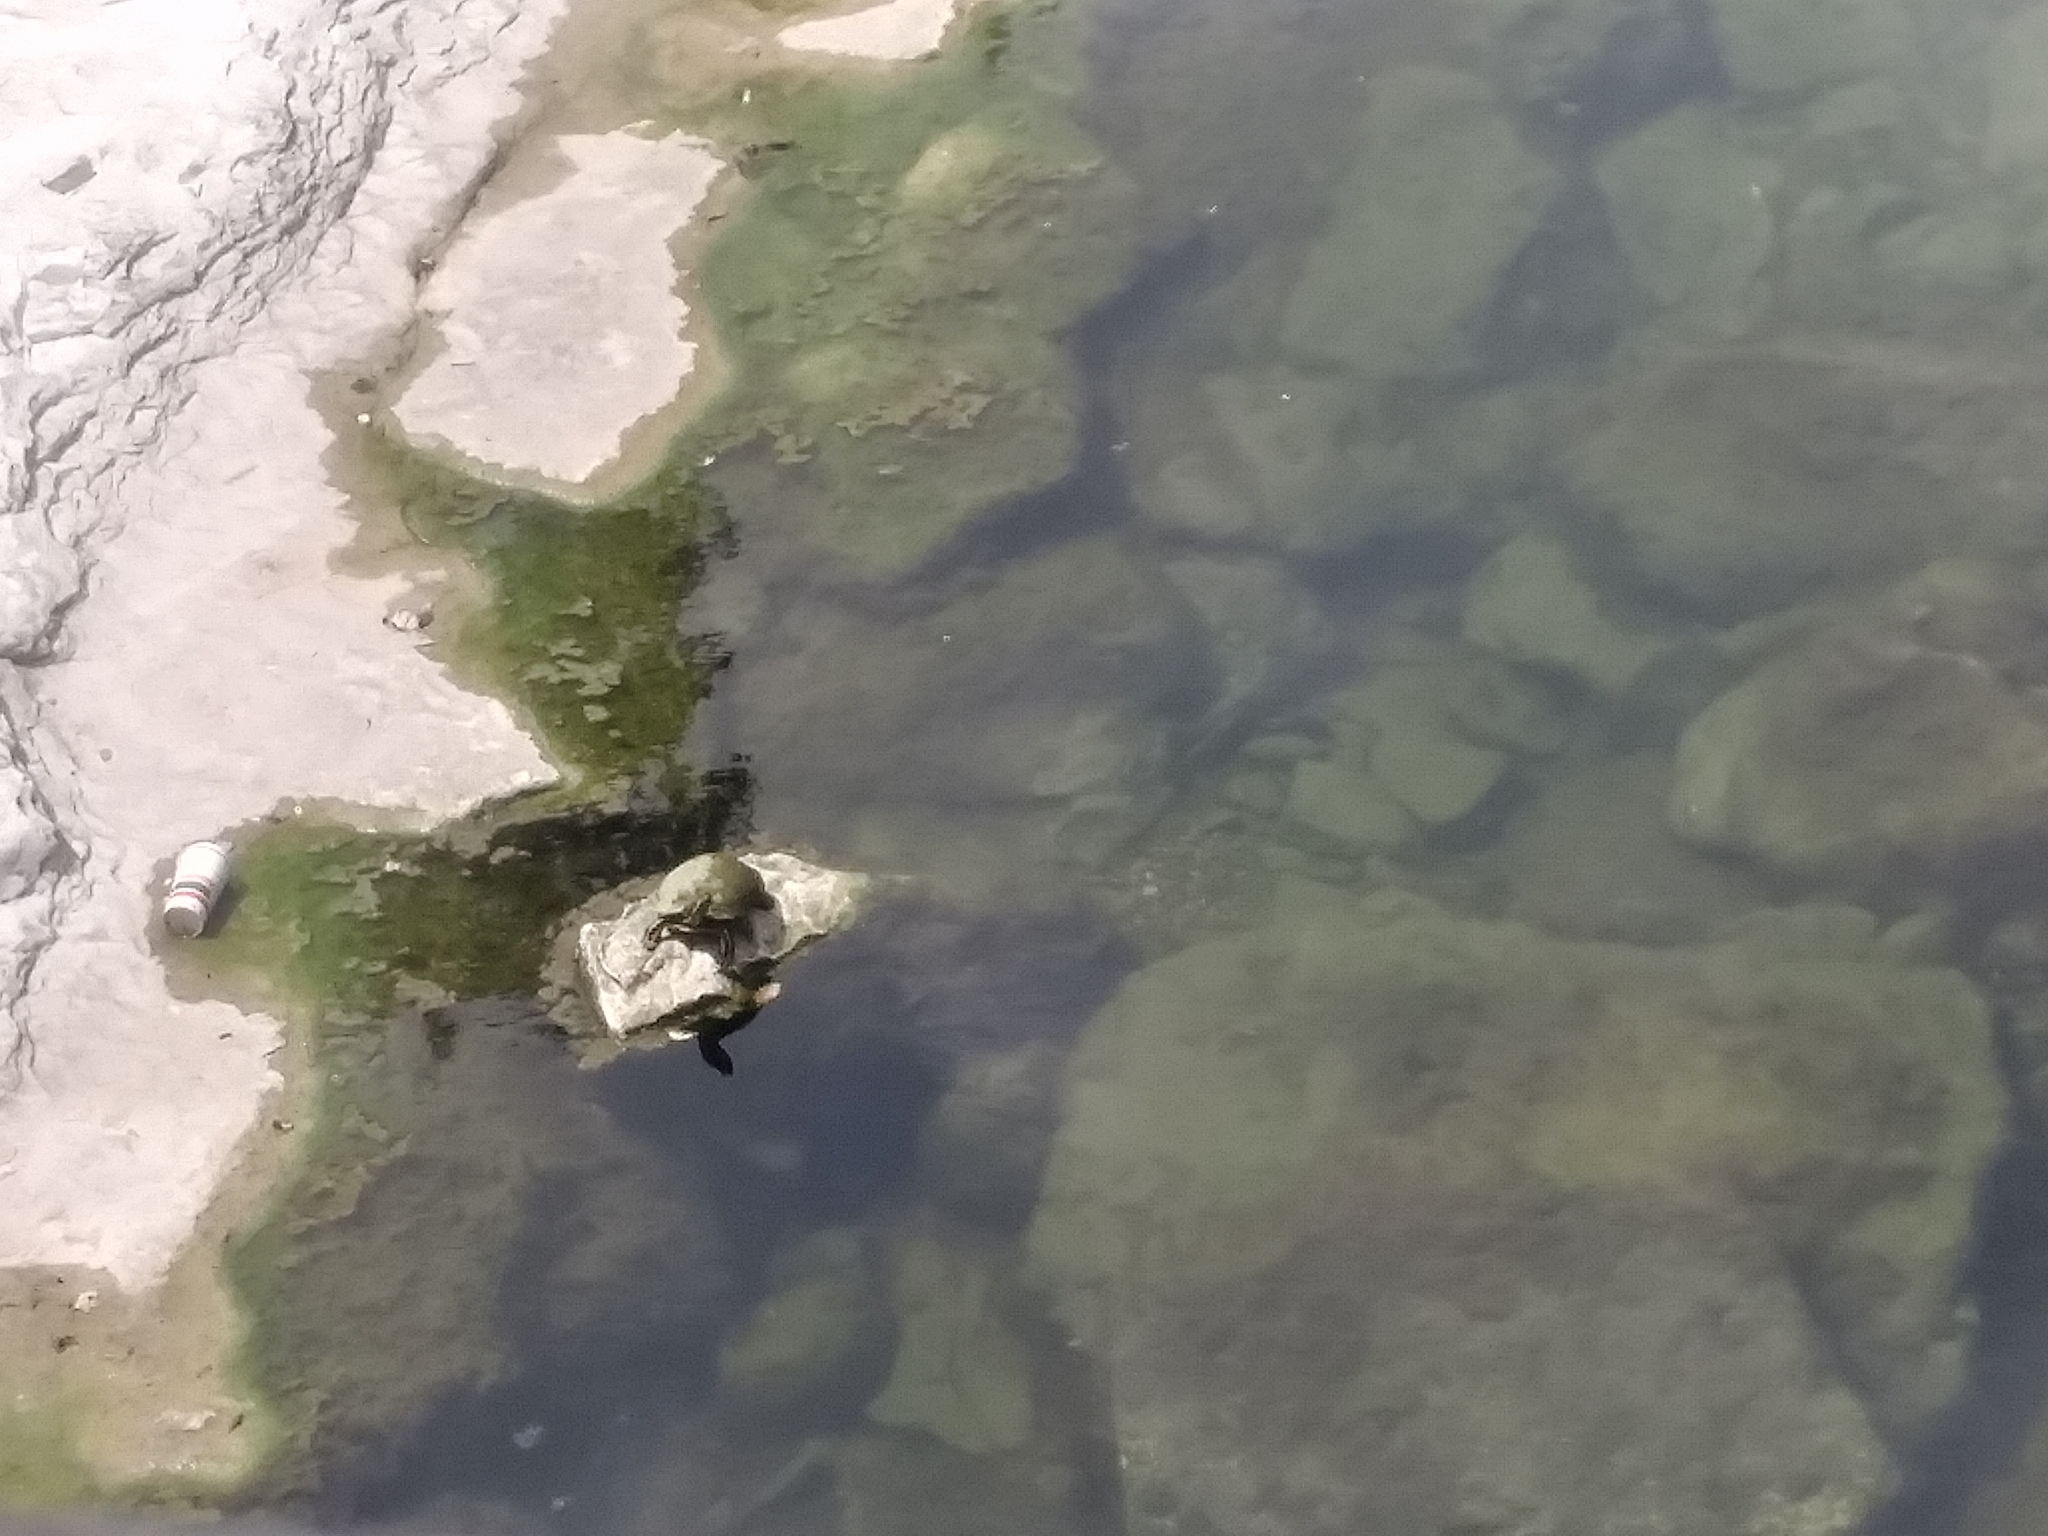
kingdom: Animalia
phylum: Chordata
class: Testudines
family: Emydidae
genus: Pseudemys
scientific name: Pseudemys texana
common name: Texas river cooter
